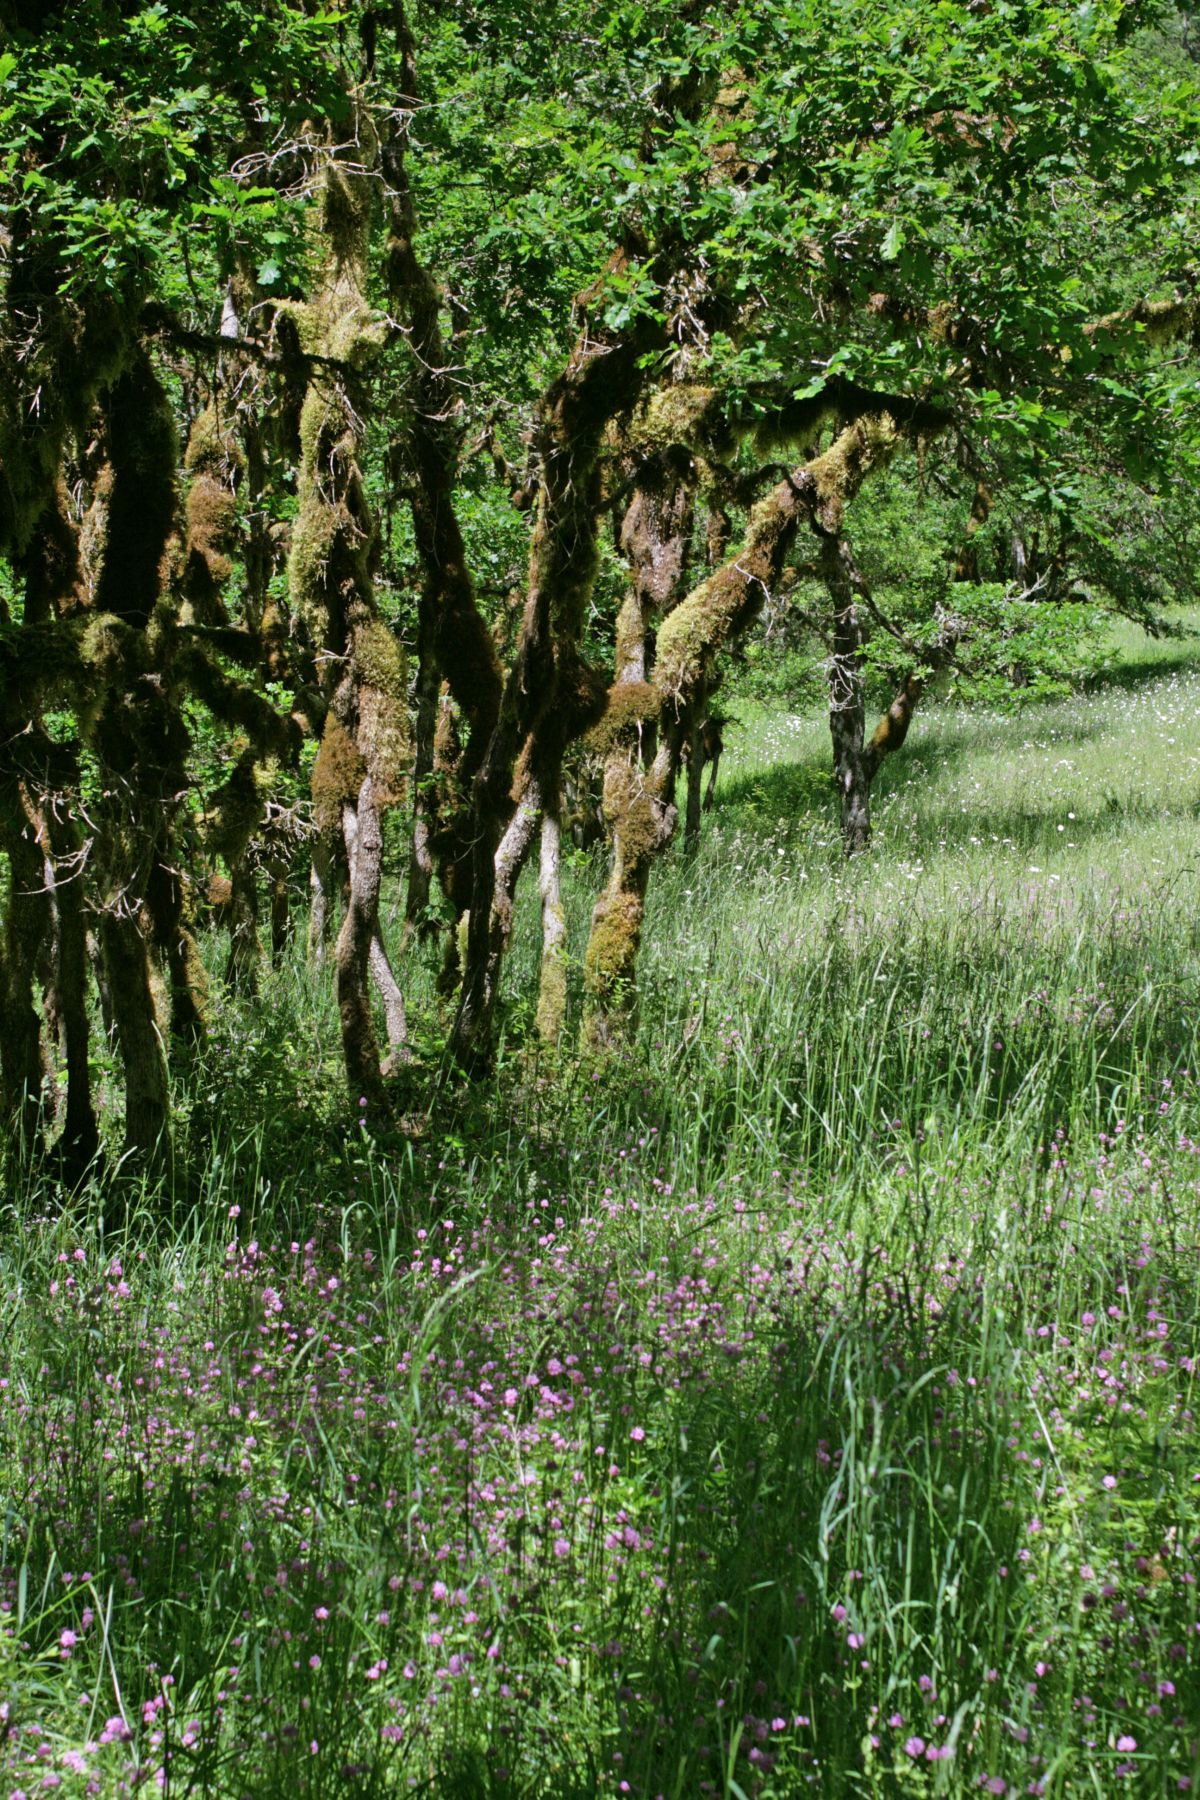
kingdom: Plantae
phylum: Tracheophyta
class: Magnoliopsida
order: Fagales
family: Fagaceae
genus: Quercus
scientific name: Quercus garryana
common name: Garry oak
